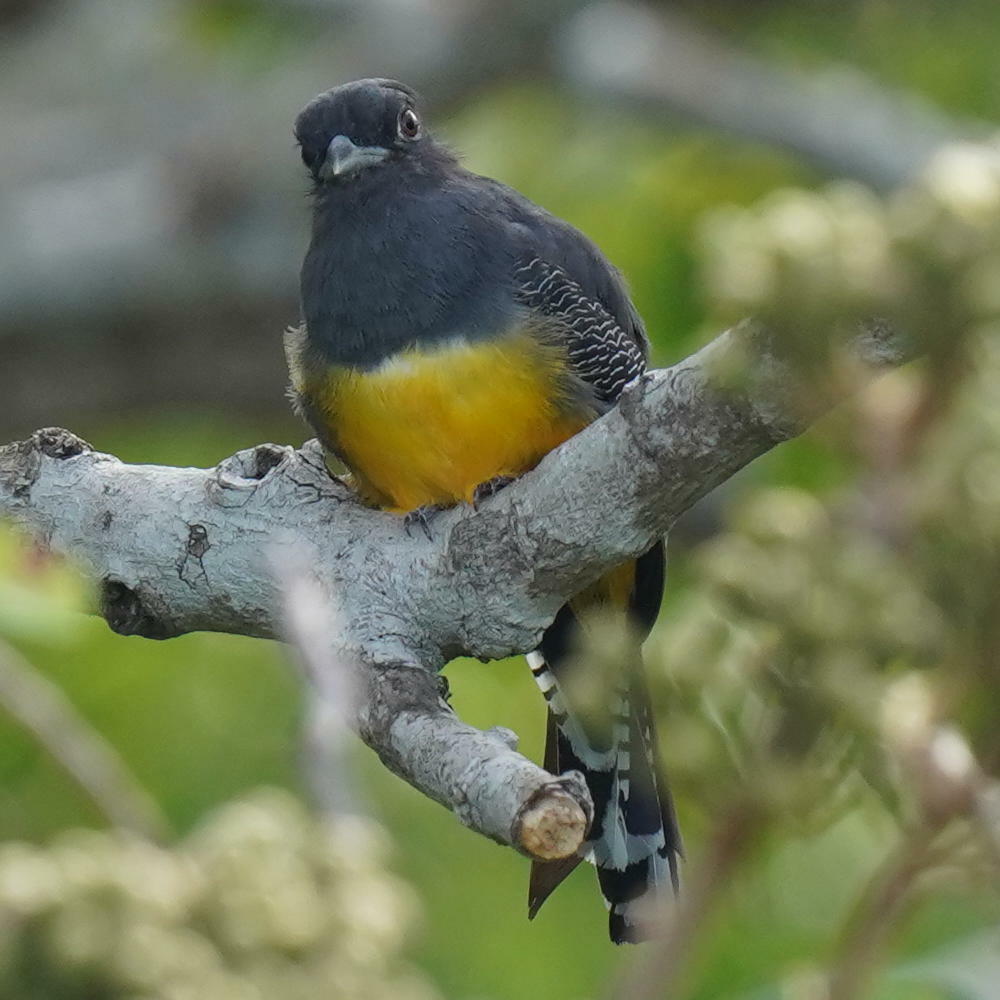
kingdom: Animalia
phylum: Chordata
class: Aves
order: Trogoniformes
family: Trogonidae
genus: Trogon
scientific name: Trogon caligatus
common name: Gartered trogon
